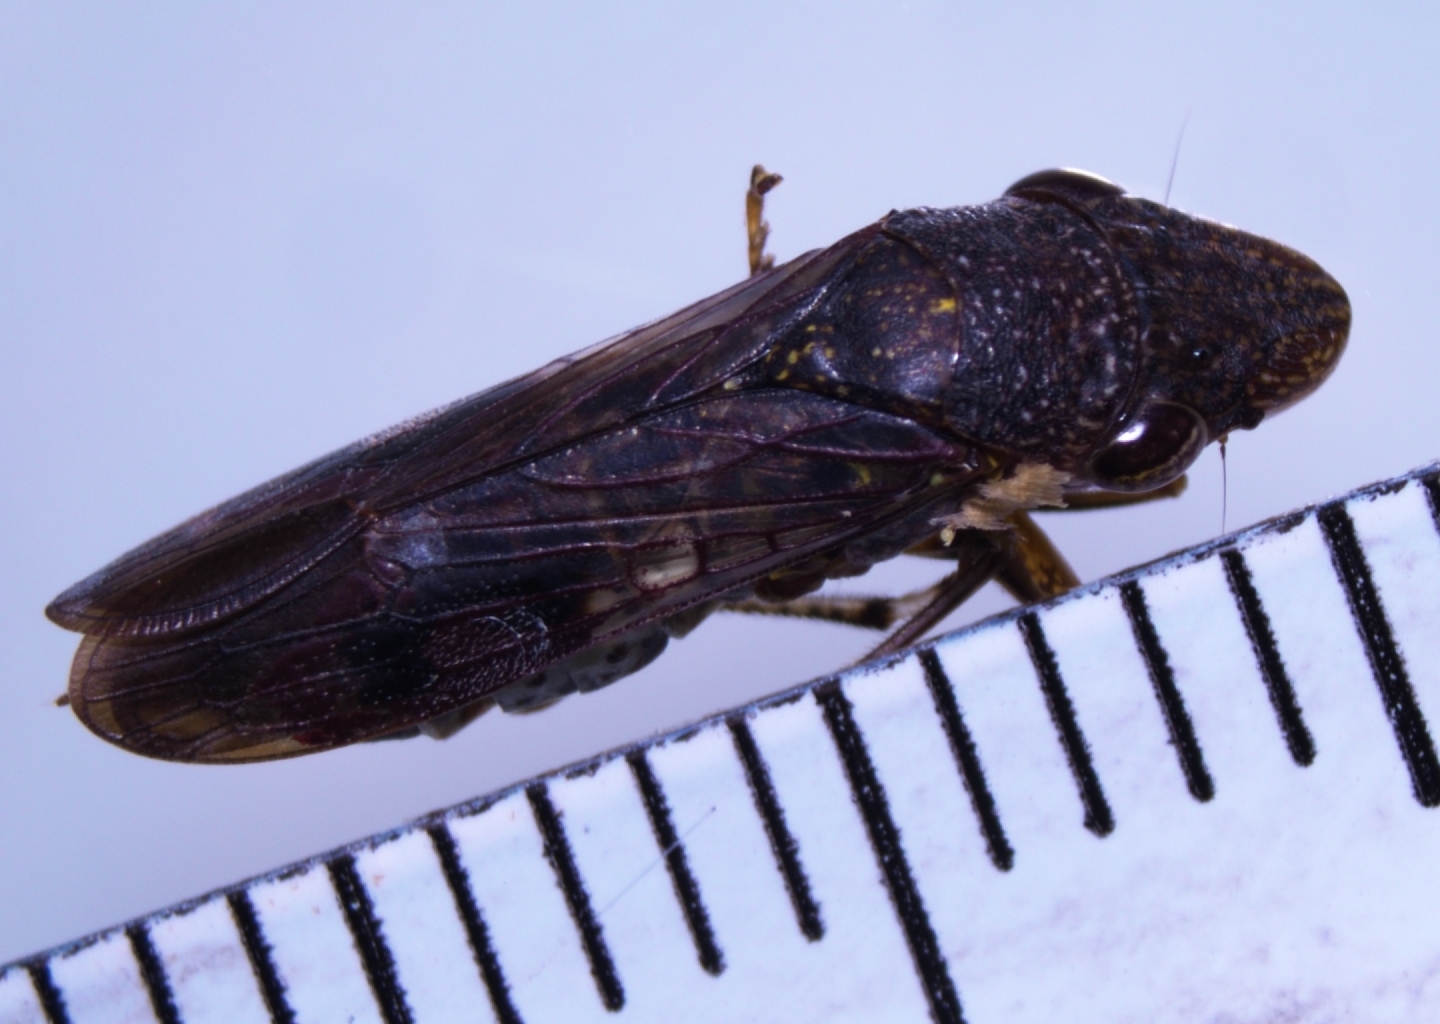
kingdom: Animalia
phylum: Arthropoda
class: Insecta
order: Hemiptera
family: Cicadellidae
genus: Homalodisca
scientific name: Homalodisca vitripennis
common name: Glassy-winged sharpshooter
